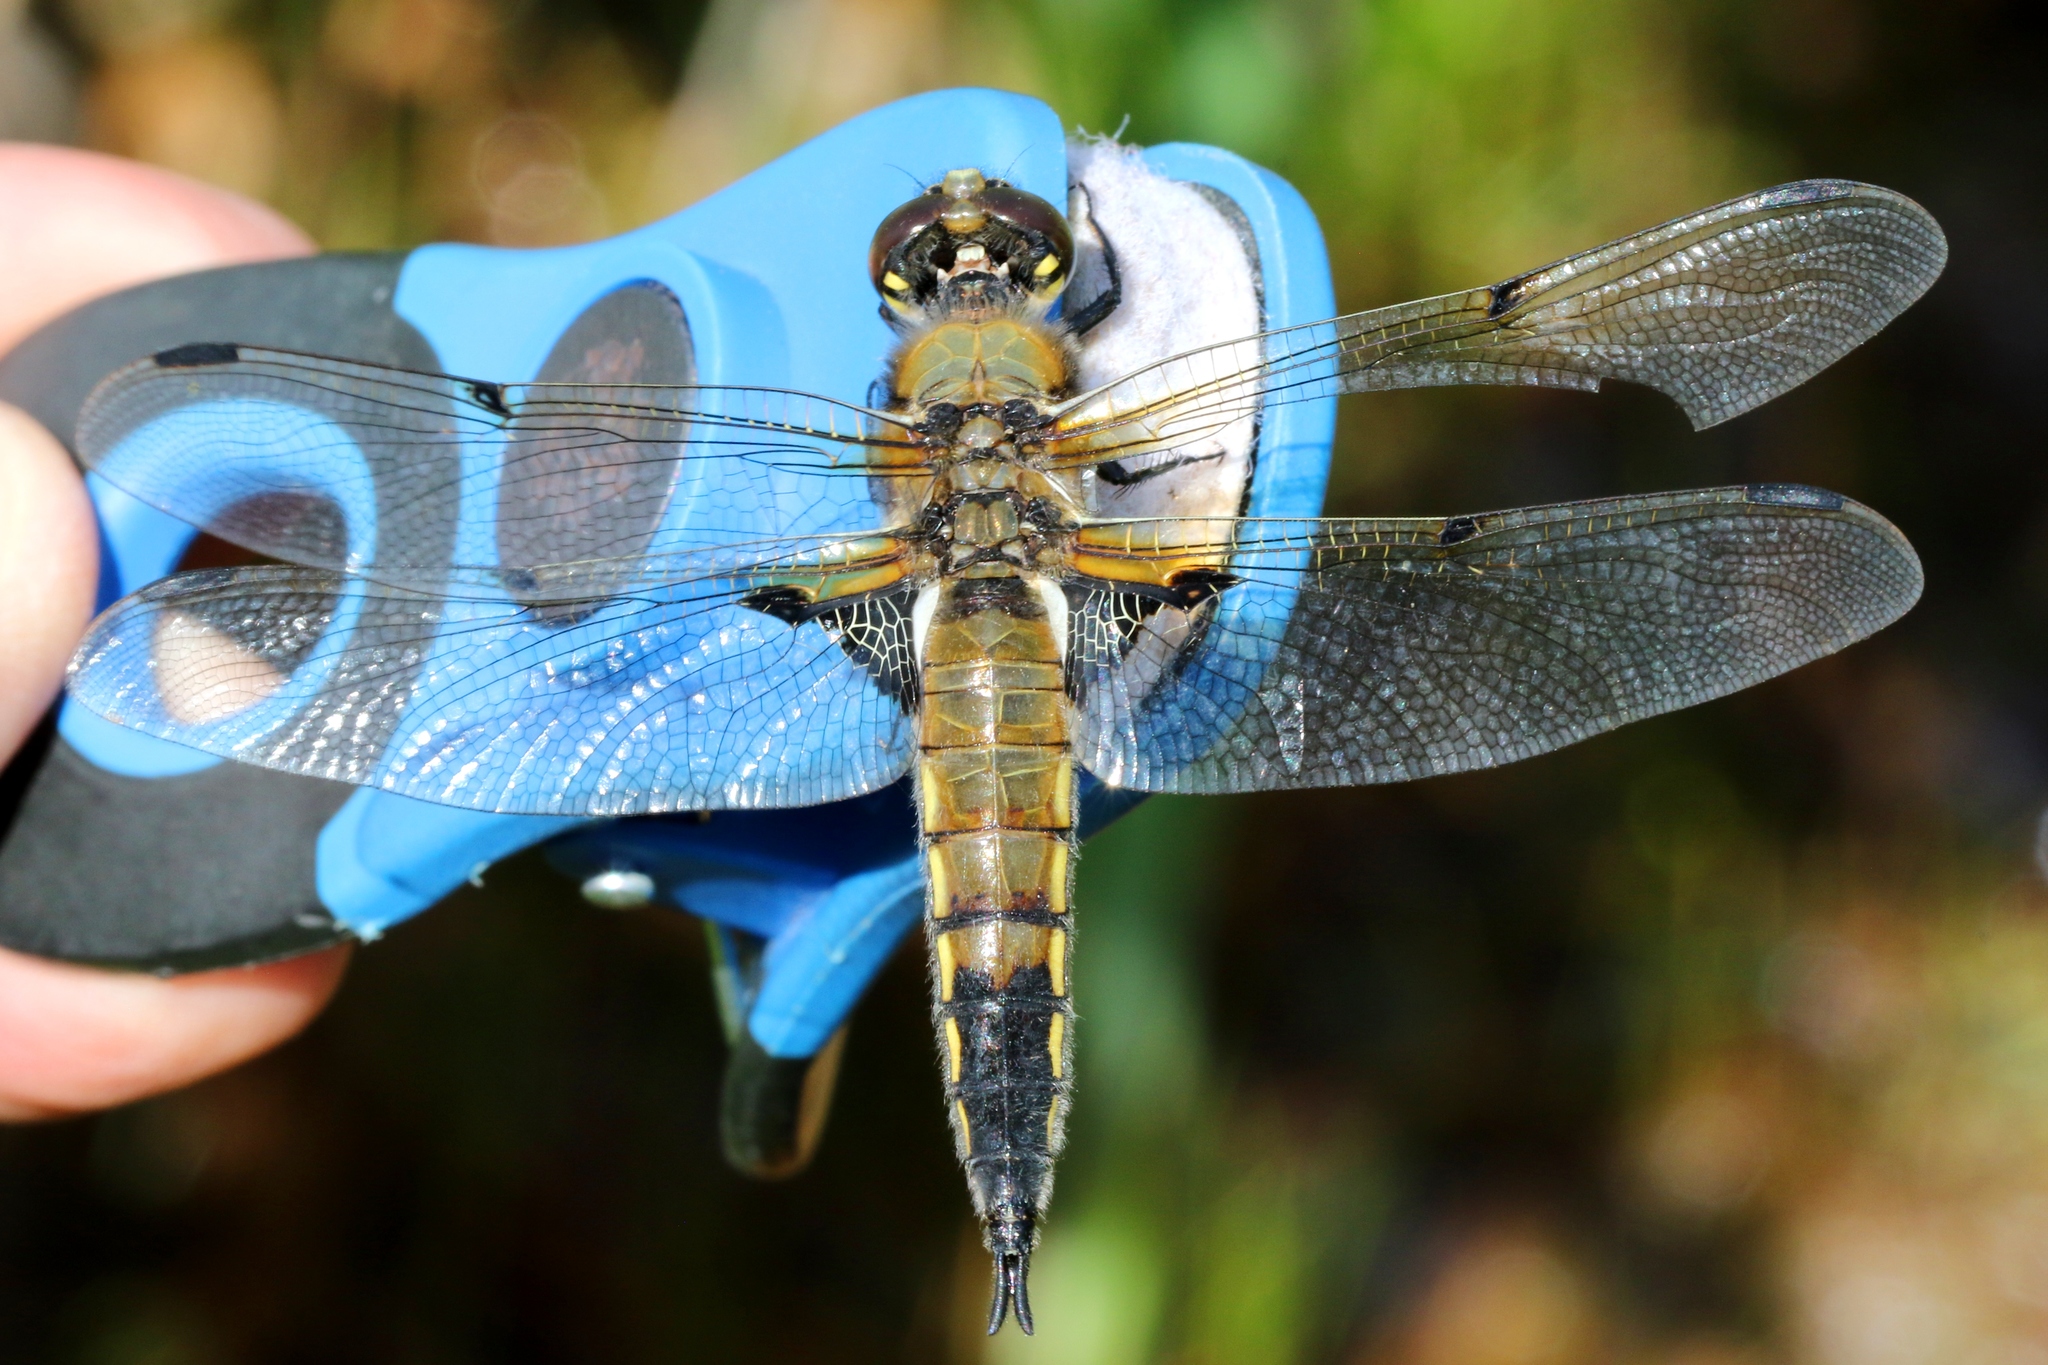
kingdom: Animalia
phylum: Arthropoda
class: Insecta
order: Odonata
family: Libellulidae
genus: Libellula
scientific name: Libellula quadrimaculata
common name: Four-spotted chaser
